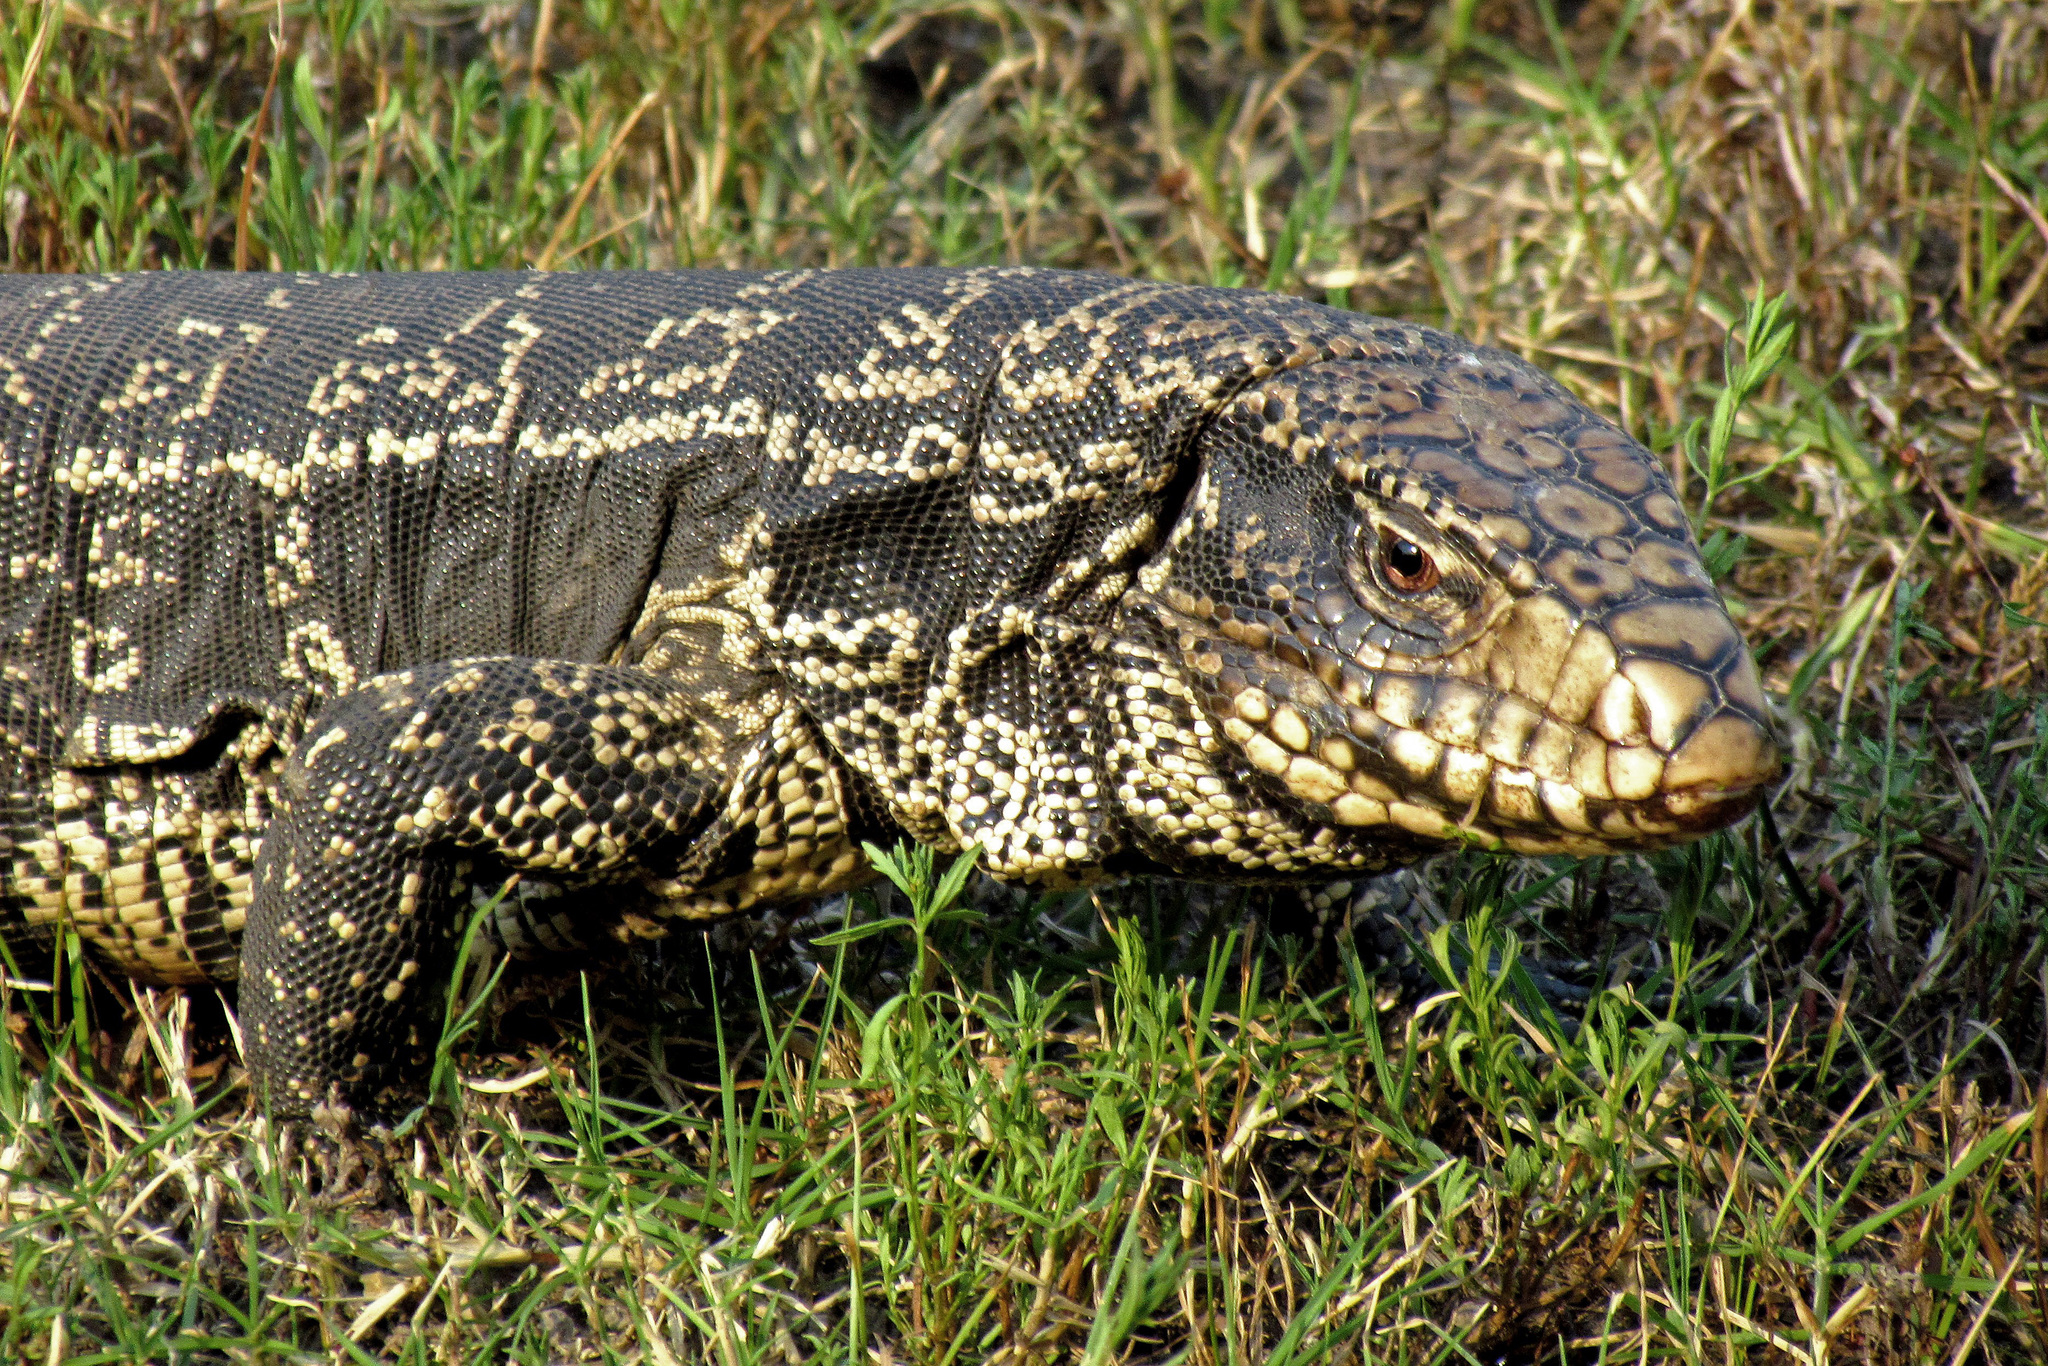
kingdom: Animalia
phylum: Chordata
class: Squamata
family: Teiidae
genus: Salvator
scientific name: Salvator merianae
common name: Argentine black and white tegu
